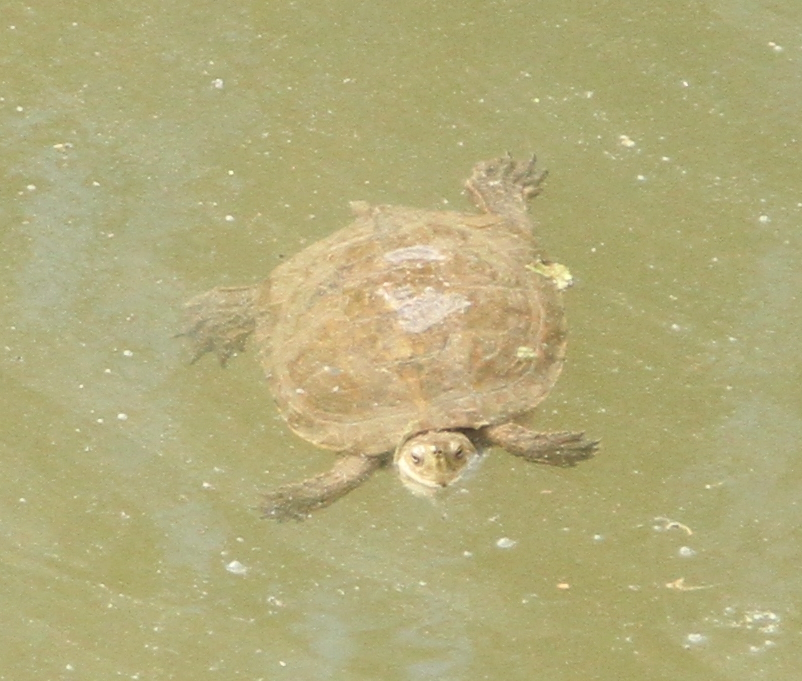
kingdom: Animalia
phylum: Chordata
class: Testudines
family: Geoemydidae
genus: Mauremys
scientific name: Mauremys leprosa
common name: Mediterranean pond turtle
